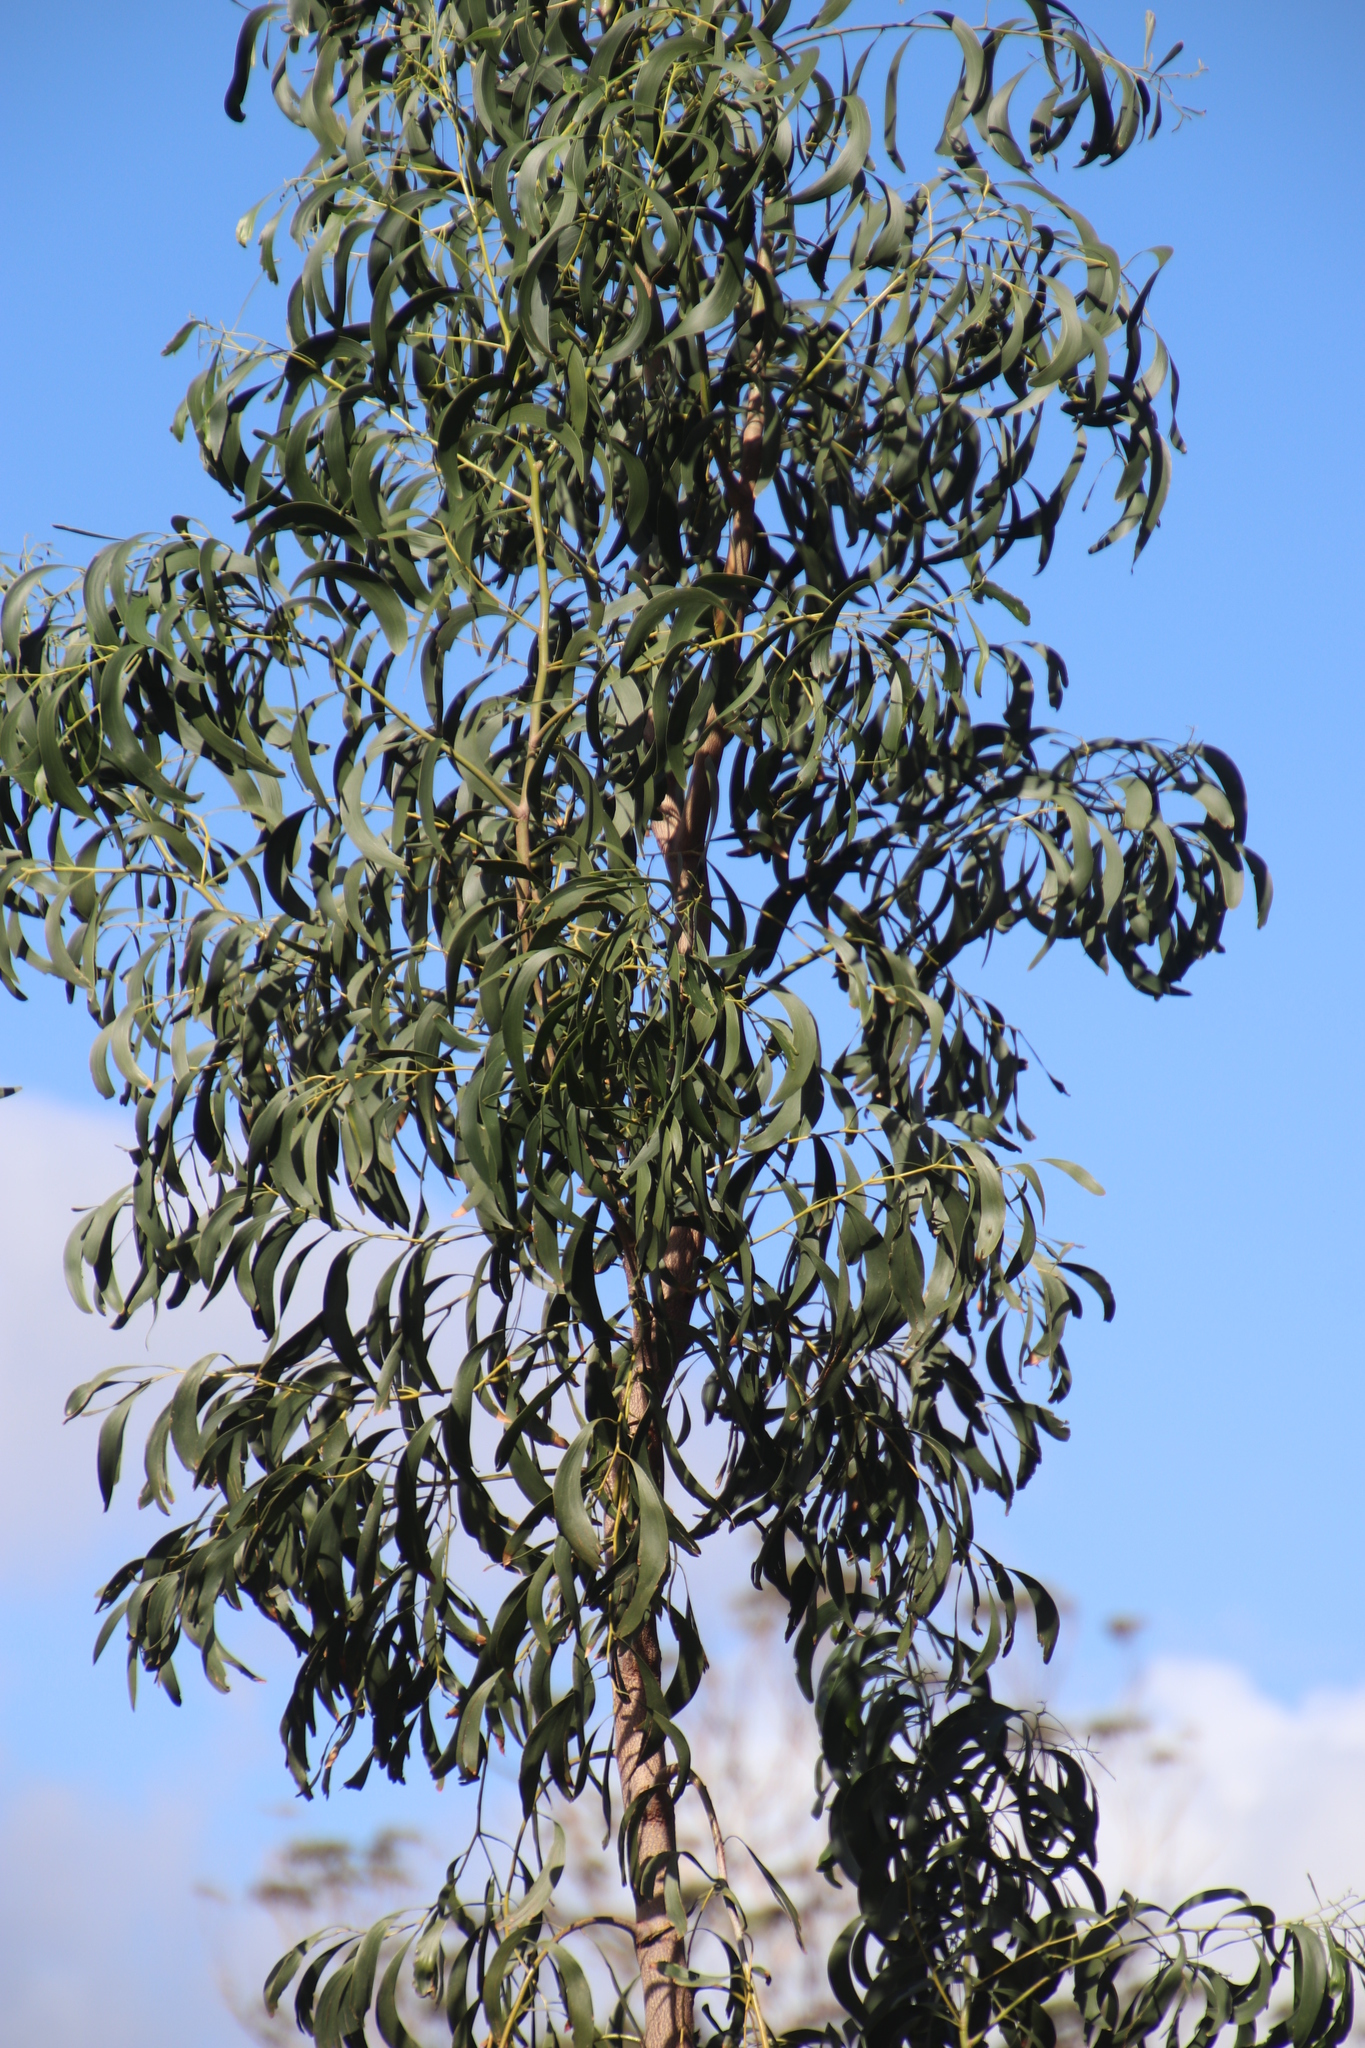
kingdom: Plantae
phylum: Tracheophyta
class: Magnoliopsida
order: Fabales
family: Fabaceae
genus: Acacia
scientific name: Acacia implexa
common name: Black wattle
